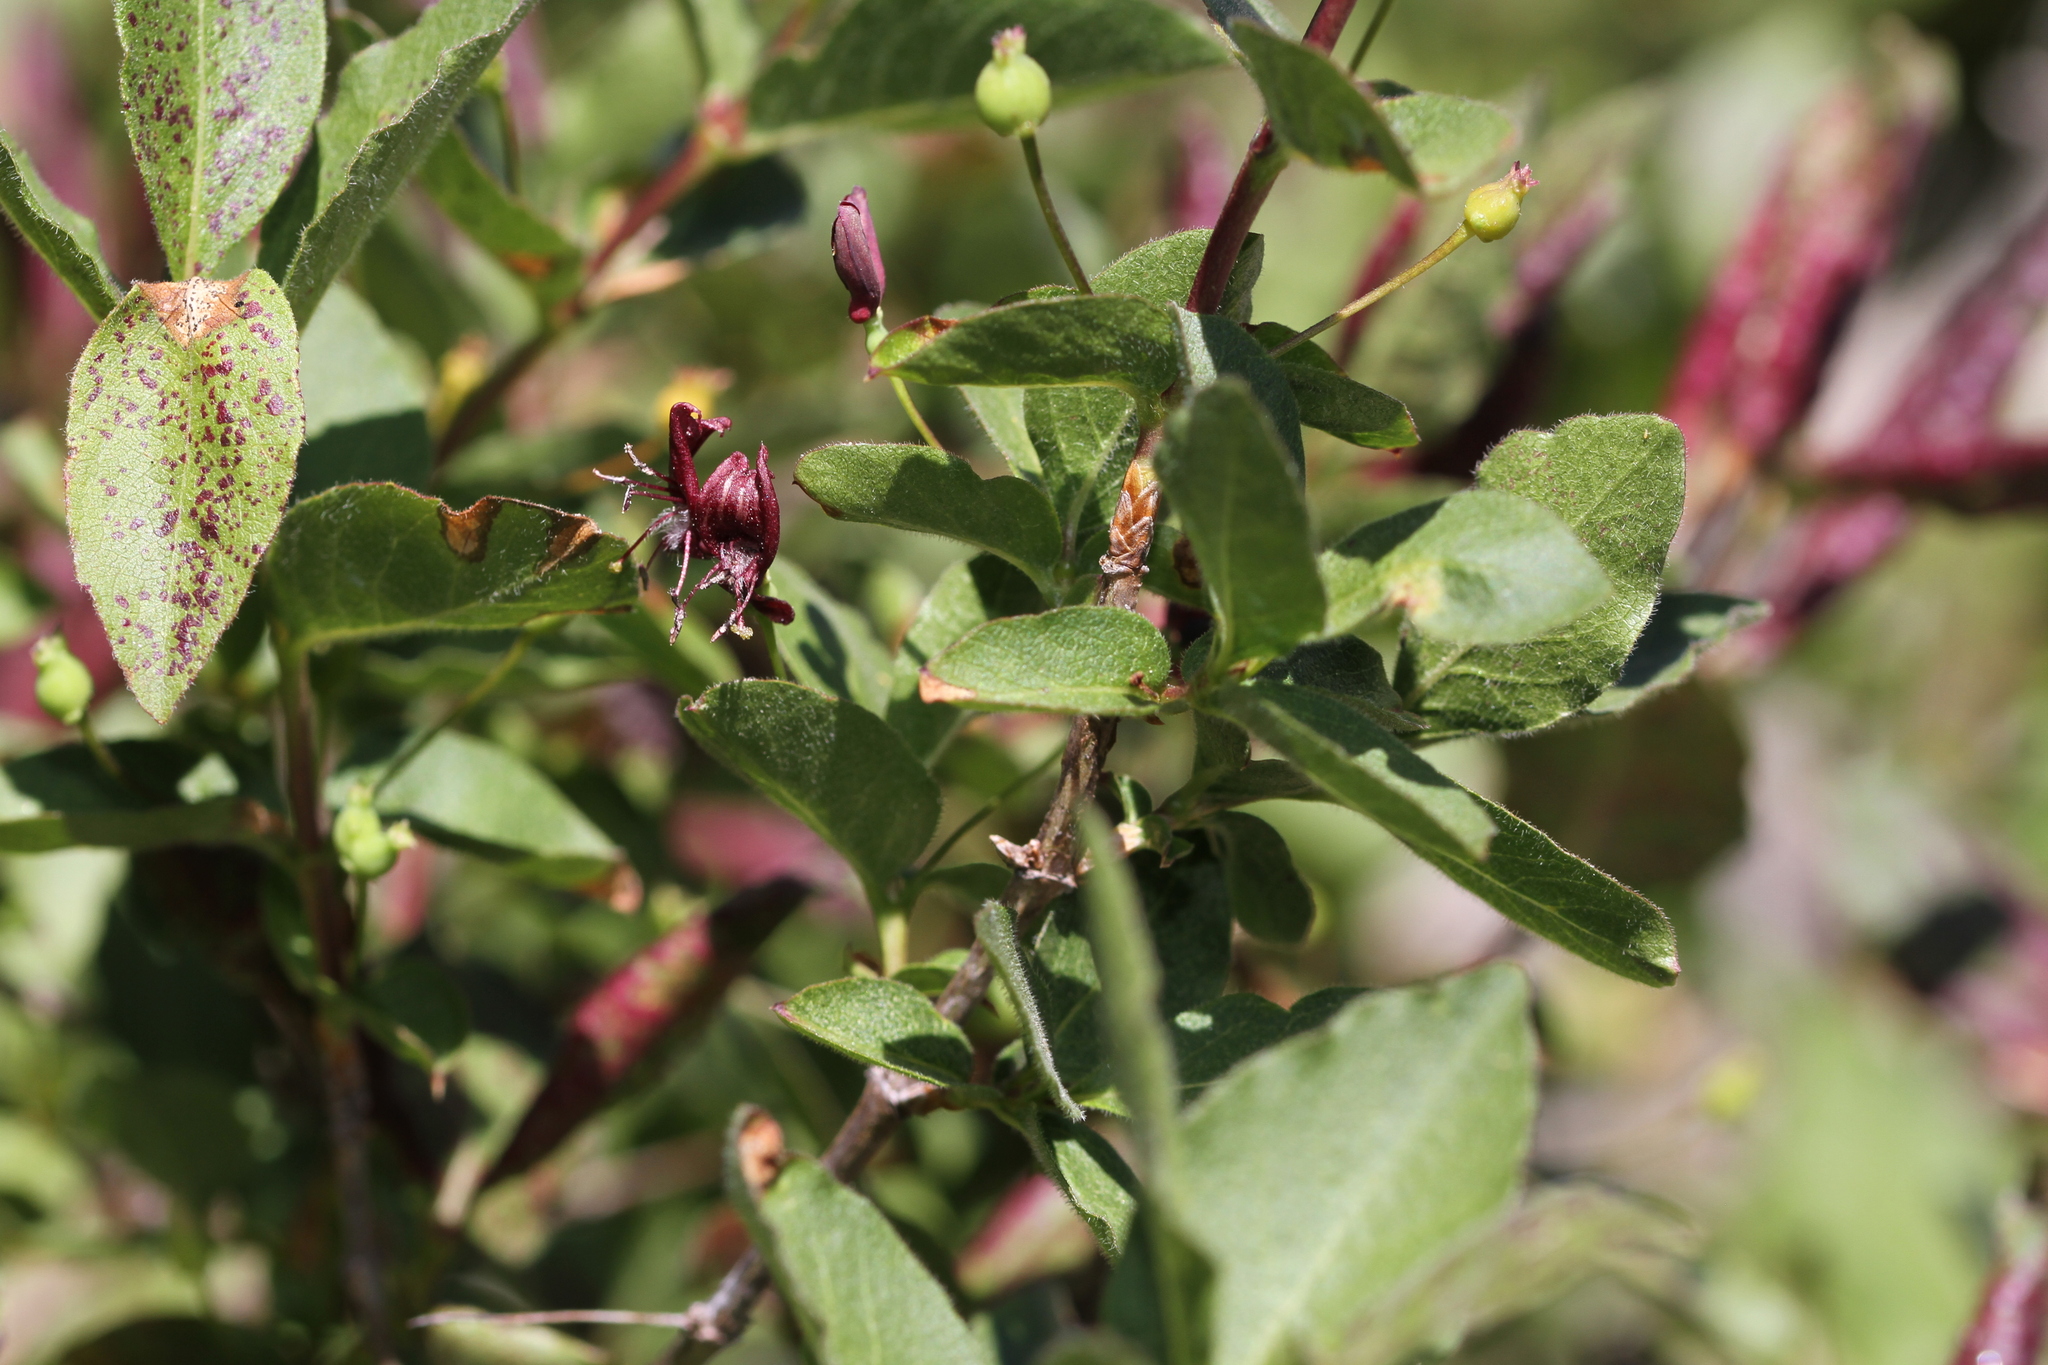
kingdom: Plantae
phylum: Tracheophyta
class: Magnoliopsida
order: Dipsacales
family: Caprifoliaceae
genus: Lonicera
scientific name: Lonicera conjugialis
